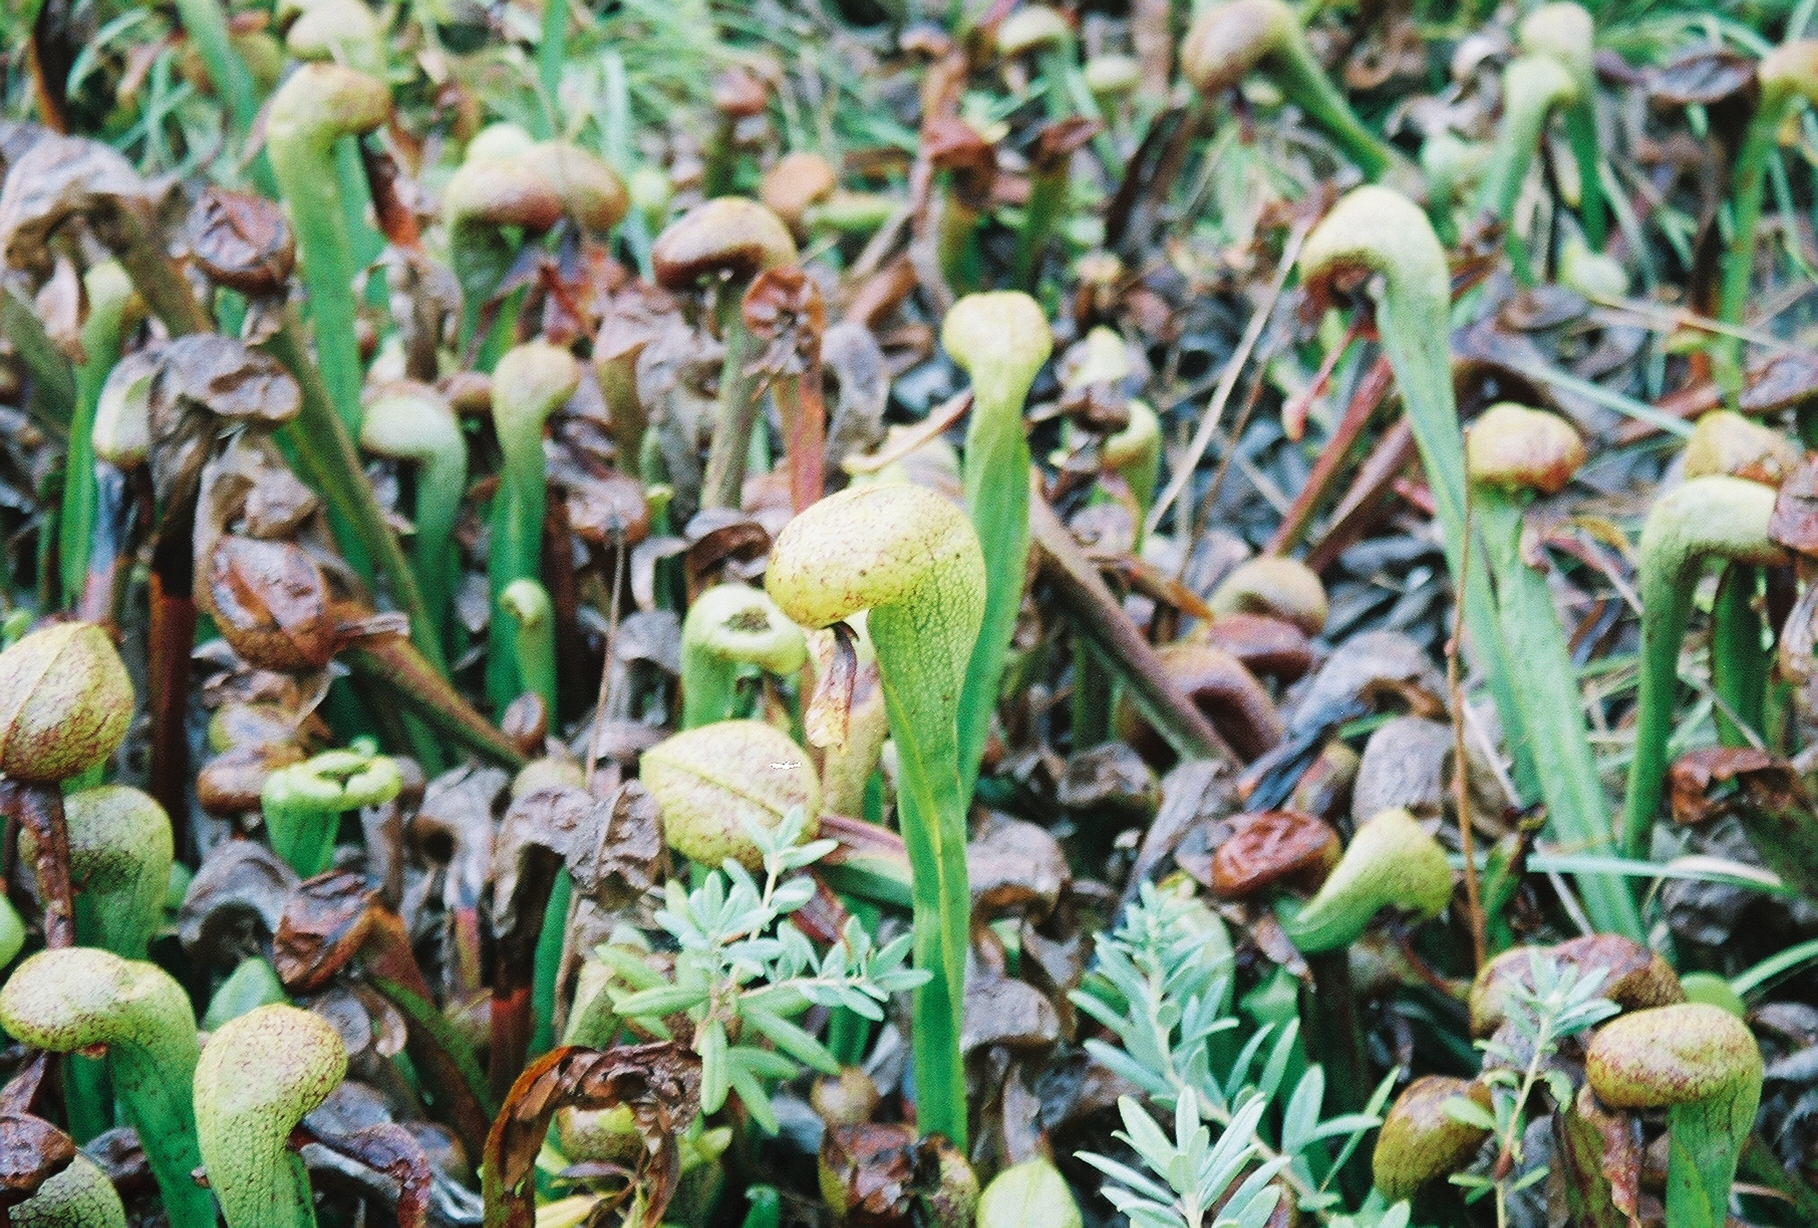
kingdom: Plantae
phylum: Tracheophyta
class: Magnoliopsida
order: Ericales
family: Sarraceniaceae
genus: Darlingtonia
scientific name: Darlingtonia californica
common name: California pitcher plant
